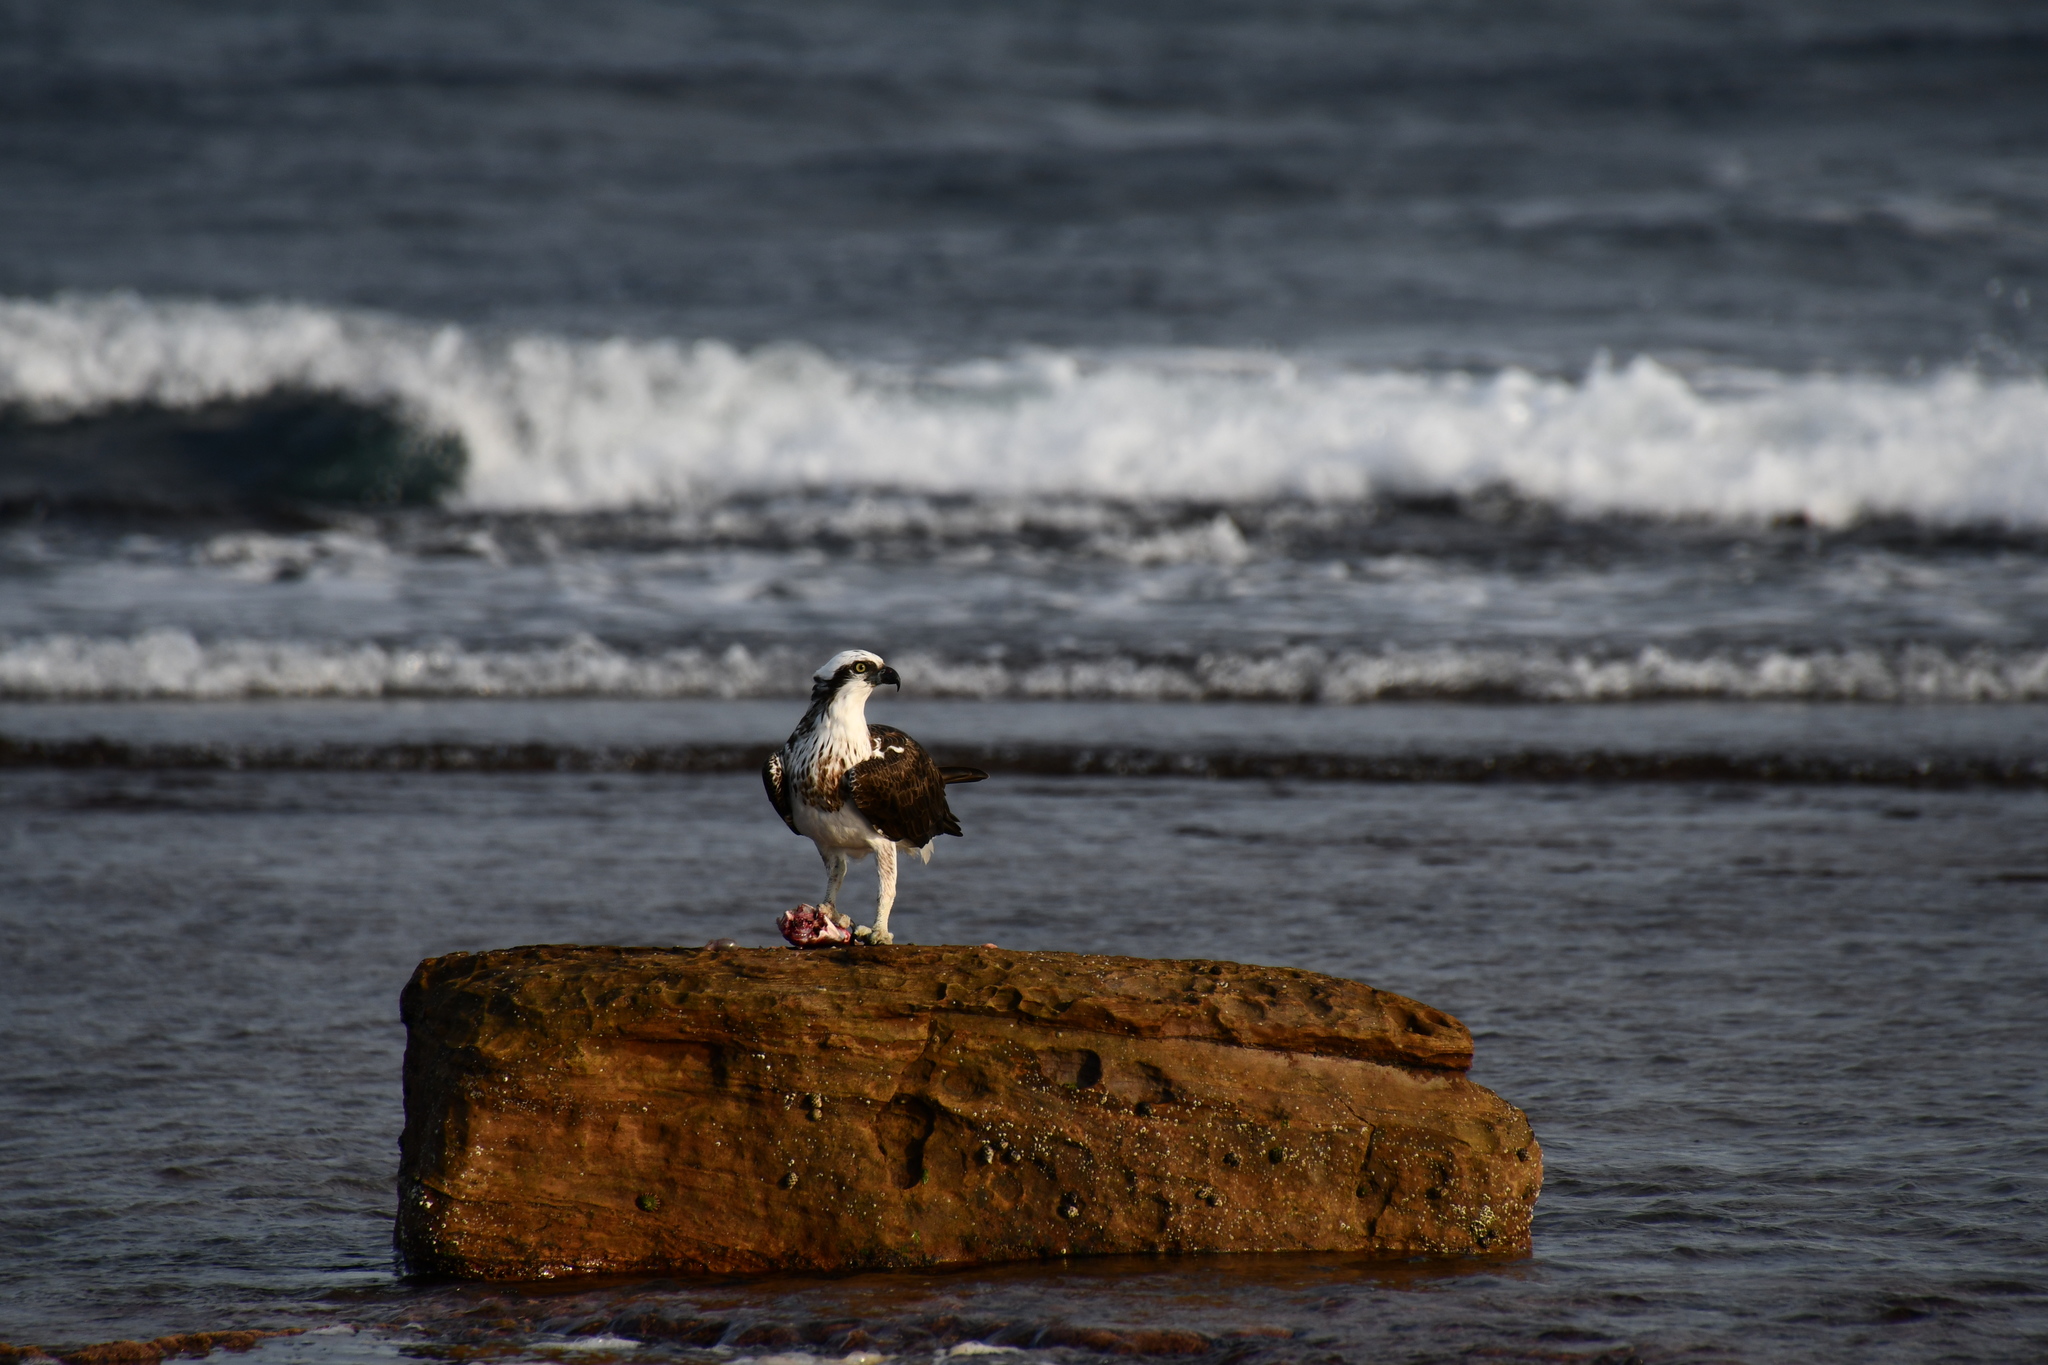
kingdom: Animalia
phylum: Chordata
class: Aves
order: Accipitriformes
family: Pandionidae
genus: Pandion
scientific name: Pandion haliaetus
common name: Osprey
